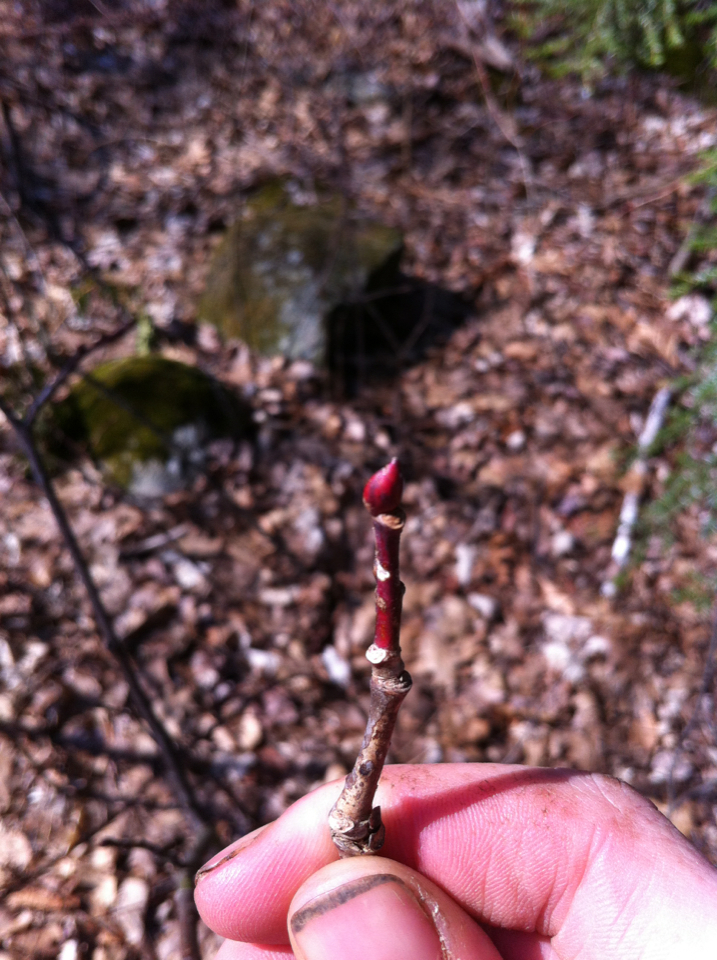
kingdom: Plantae
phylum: Tracheophyta
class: Magnoliopsida
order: Malvales
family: Malvaceae
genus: Tilia
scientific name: Tilia americana
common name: Basswood
